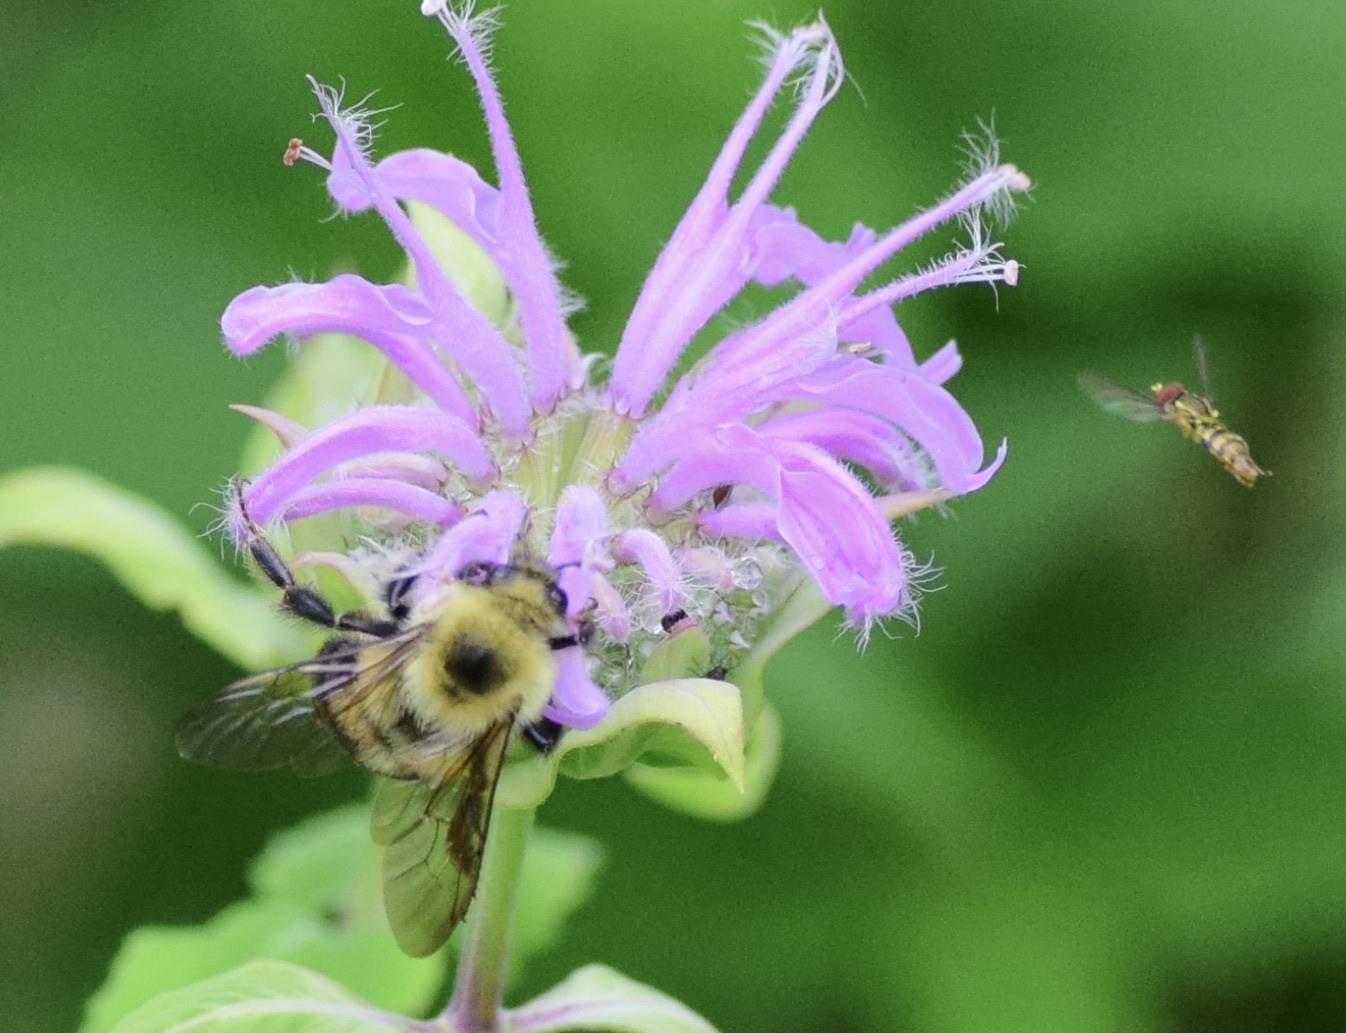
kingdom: Animalia
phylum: Arthropoda
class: Insecta
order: Hymenoptera
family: Apidae
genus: Bombus
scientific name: Bombus bimaculatus
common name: Two-spotted bumble bee
